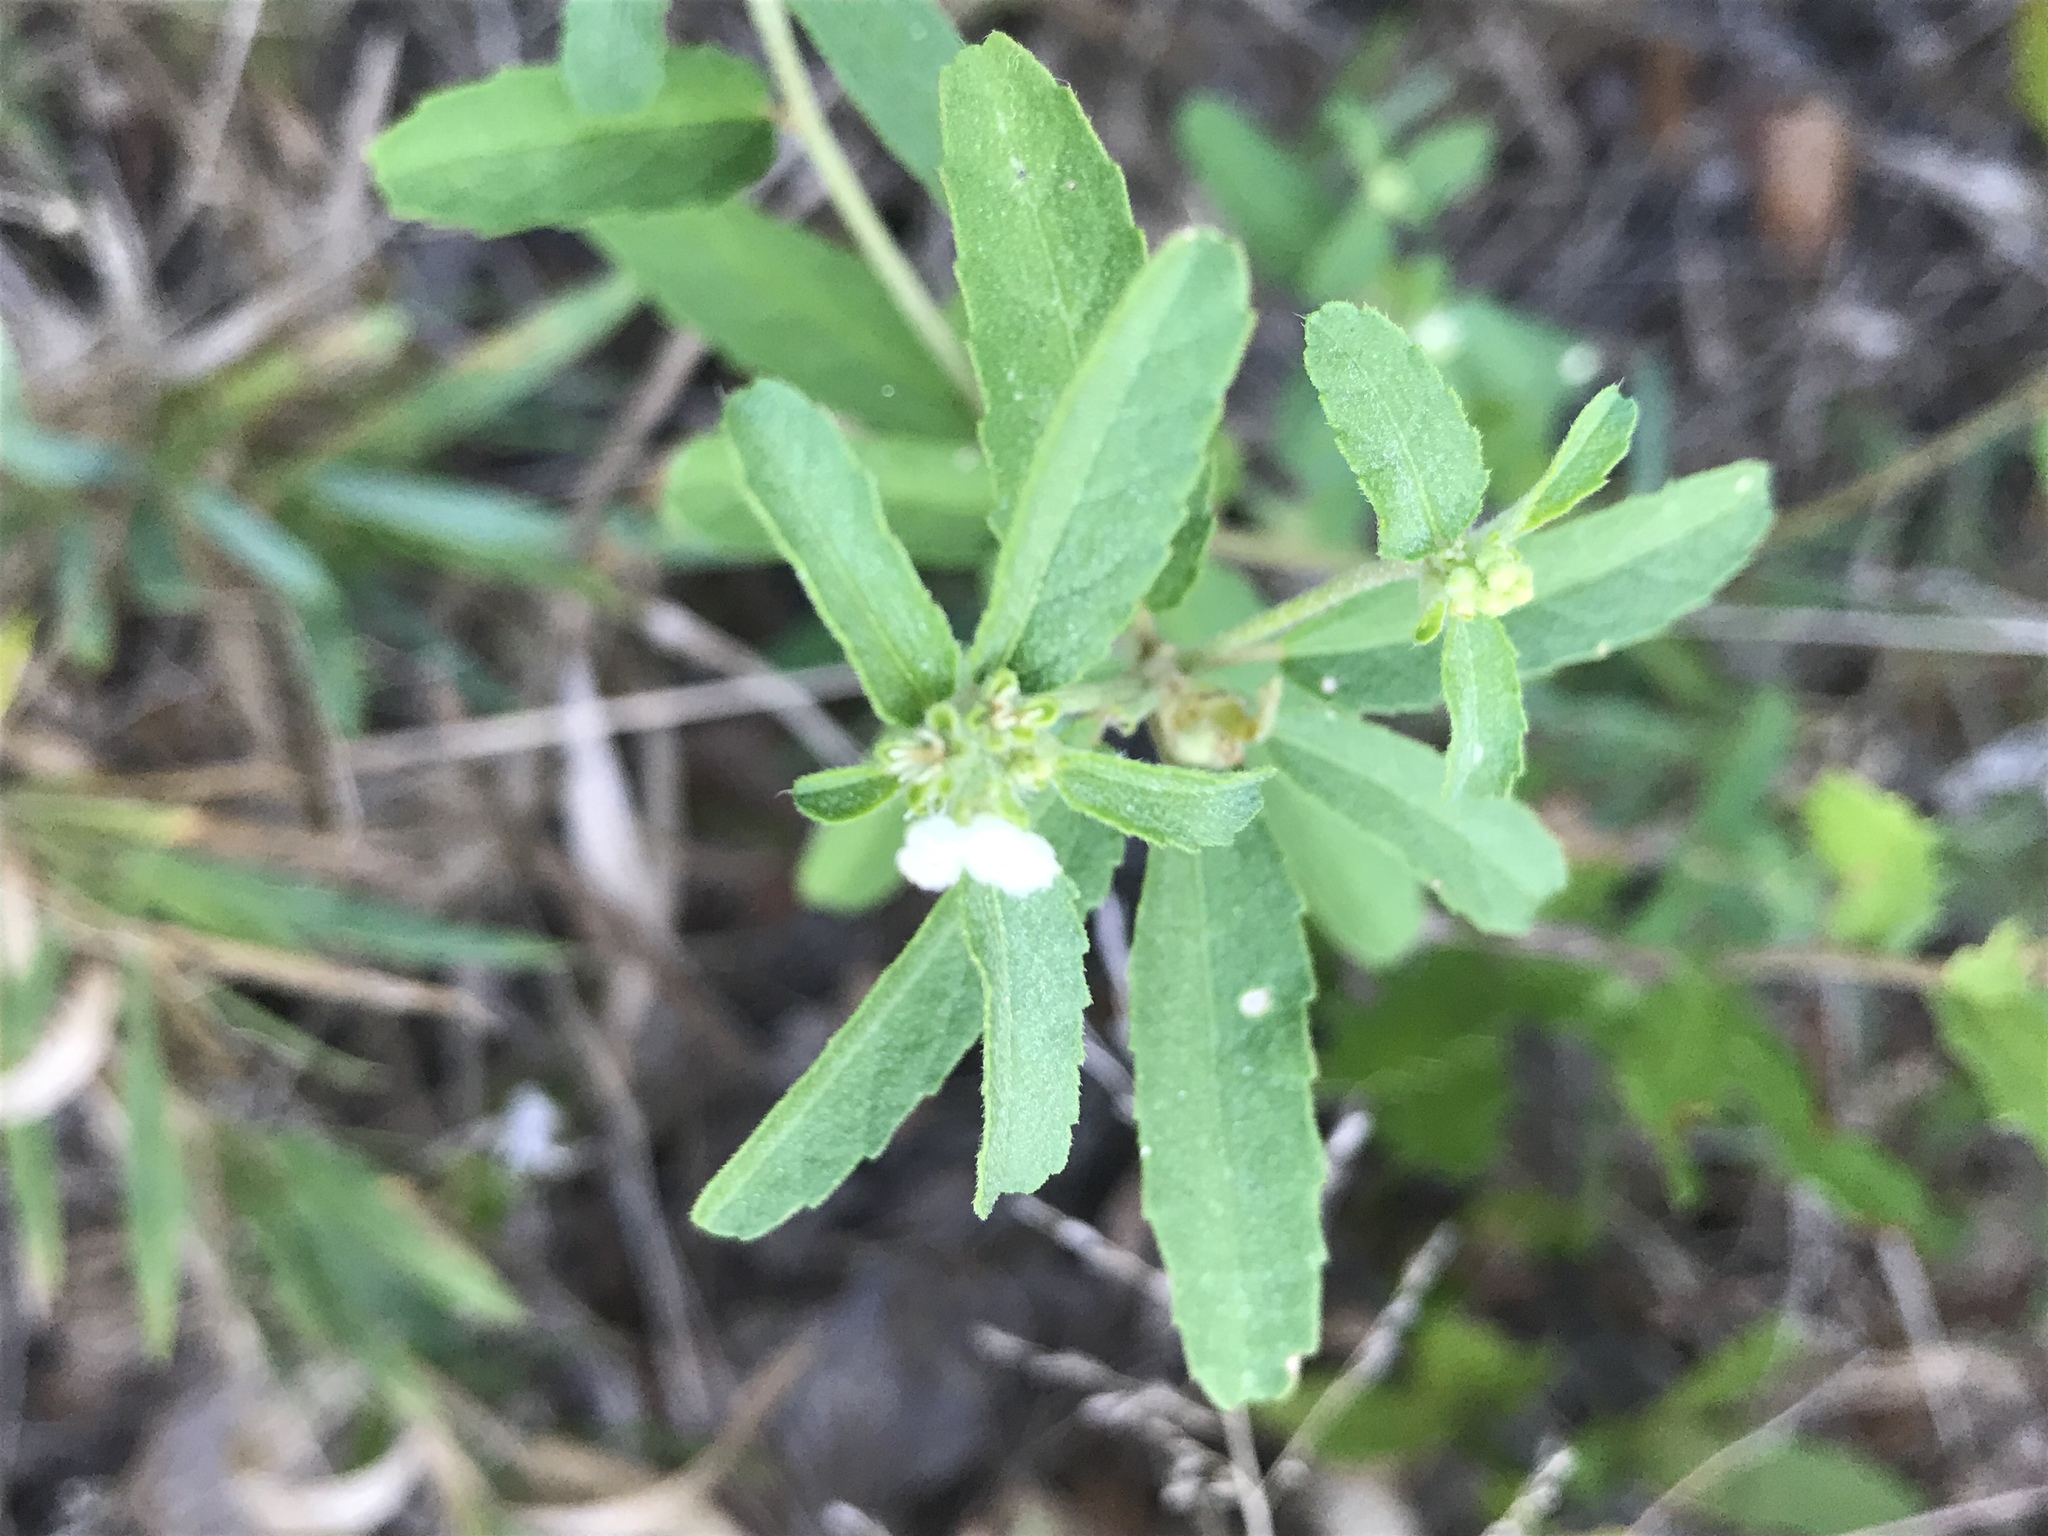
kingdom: Plantae
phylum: Tracheophyta
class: Magnoliopsida
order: Malpighiales
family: Euphorbiaceae
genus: Croton
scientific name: Croton glandulosus
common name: Tropic croton
